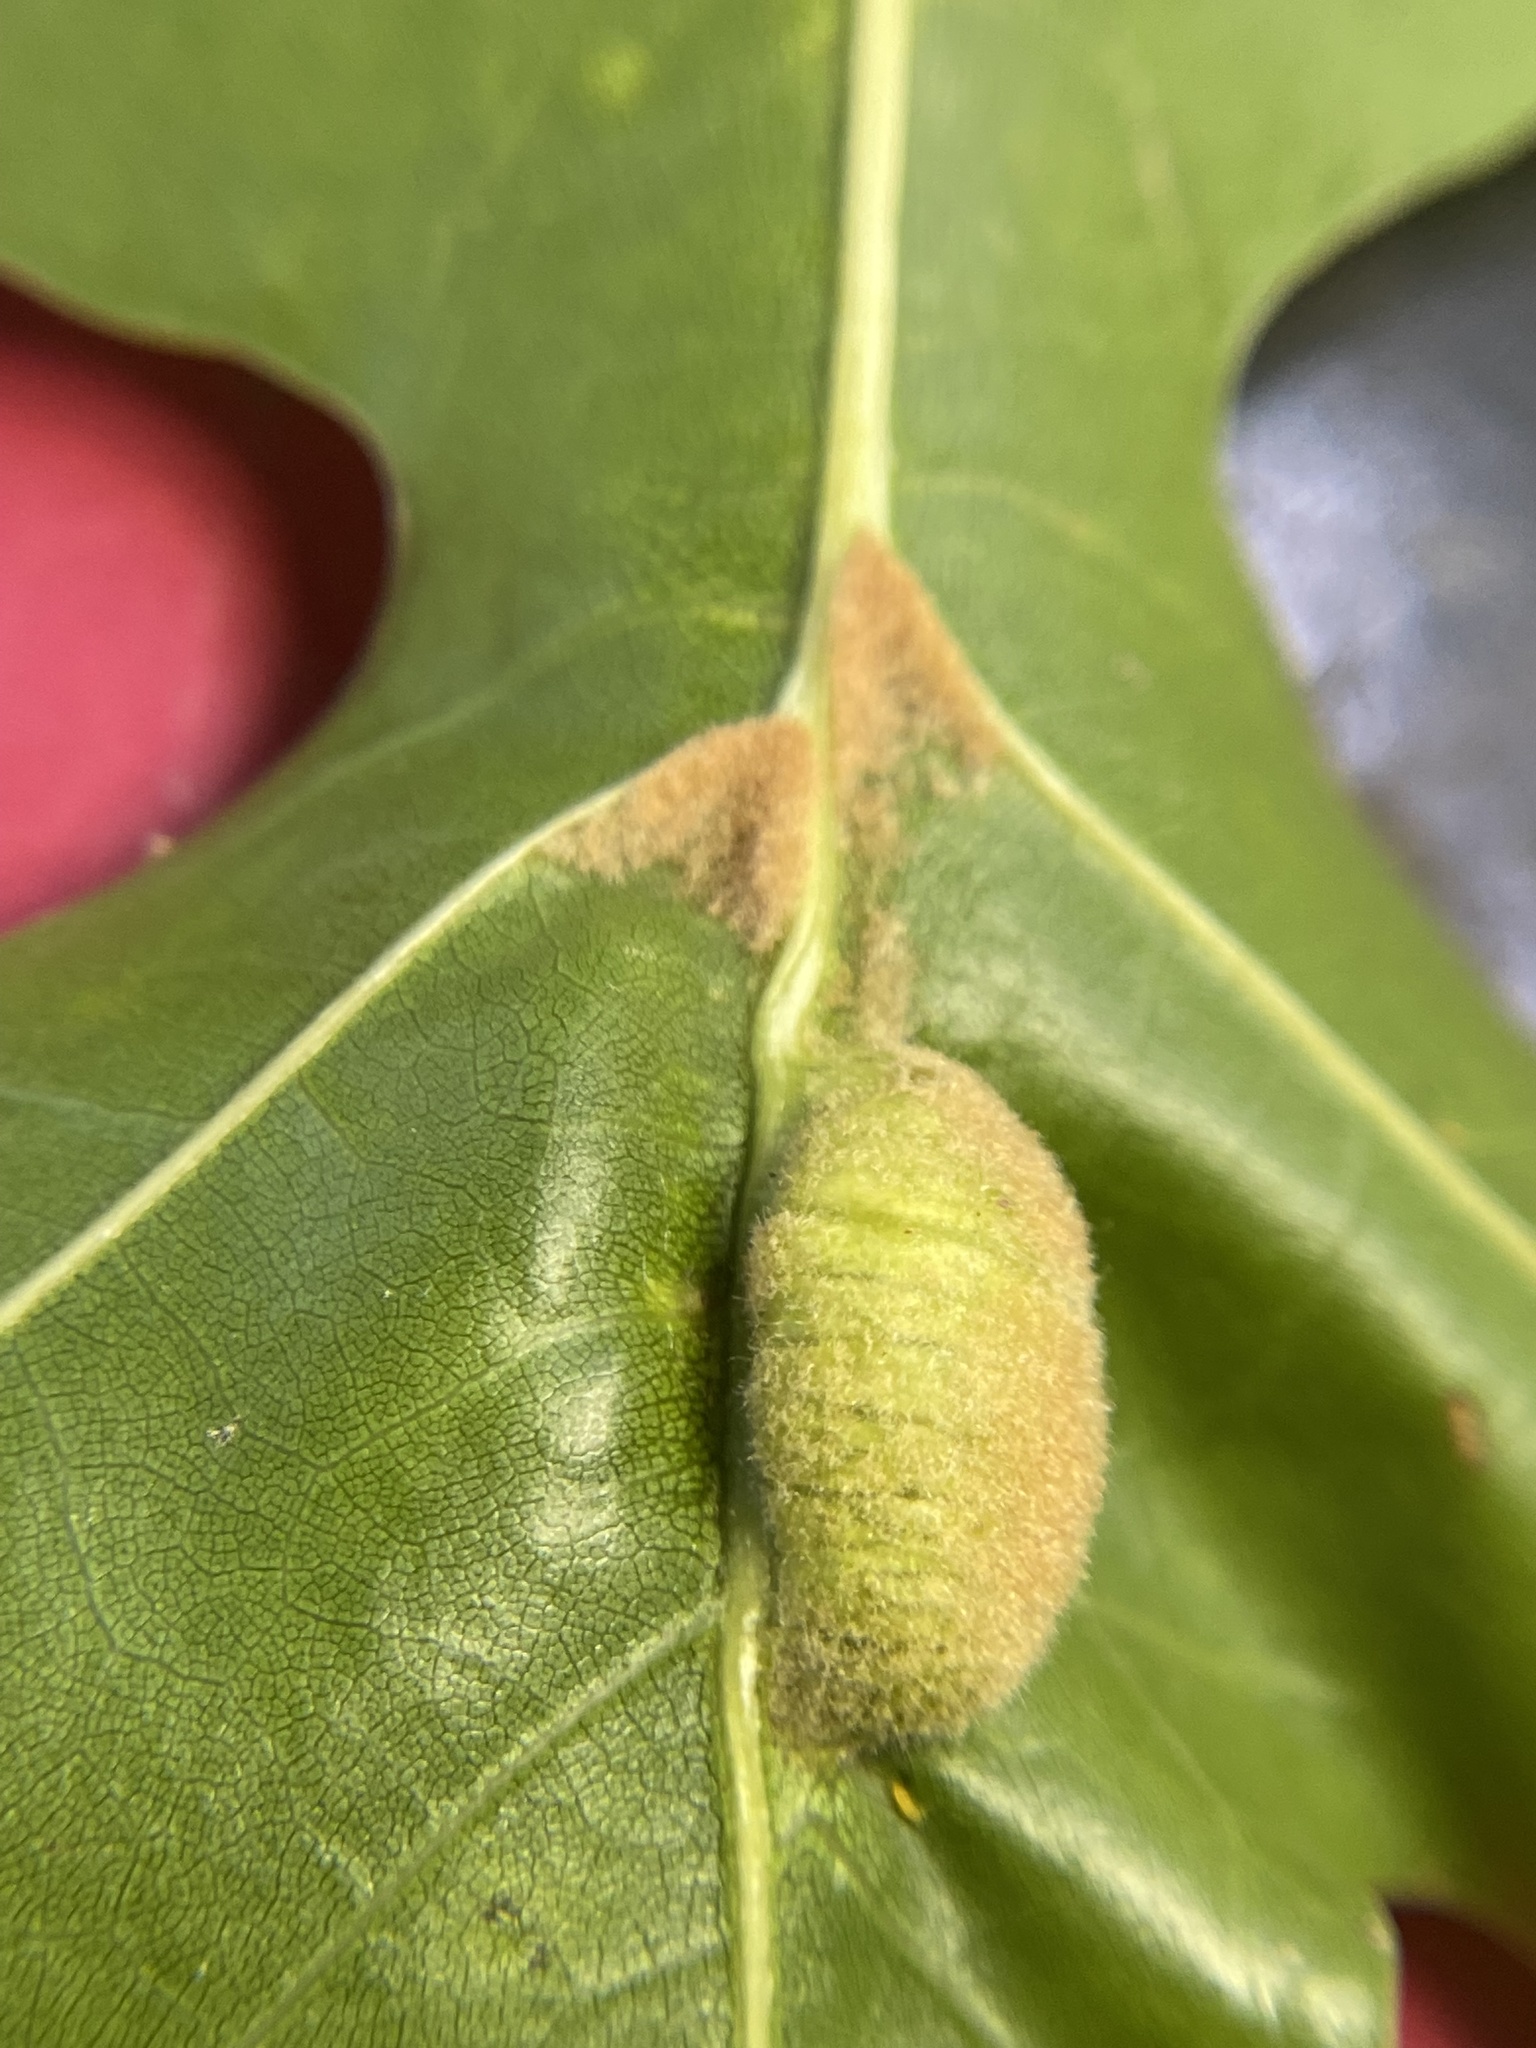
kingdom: Animalia
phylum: Arthropoda
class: Insecta
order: Diptera
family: Cecidomyiidae
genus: Macrodiplosis
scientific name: Macrodiplosis niveipila
